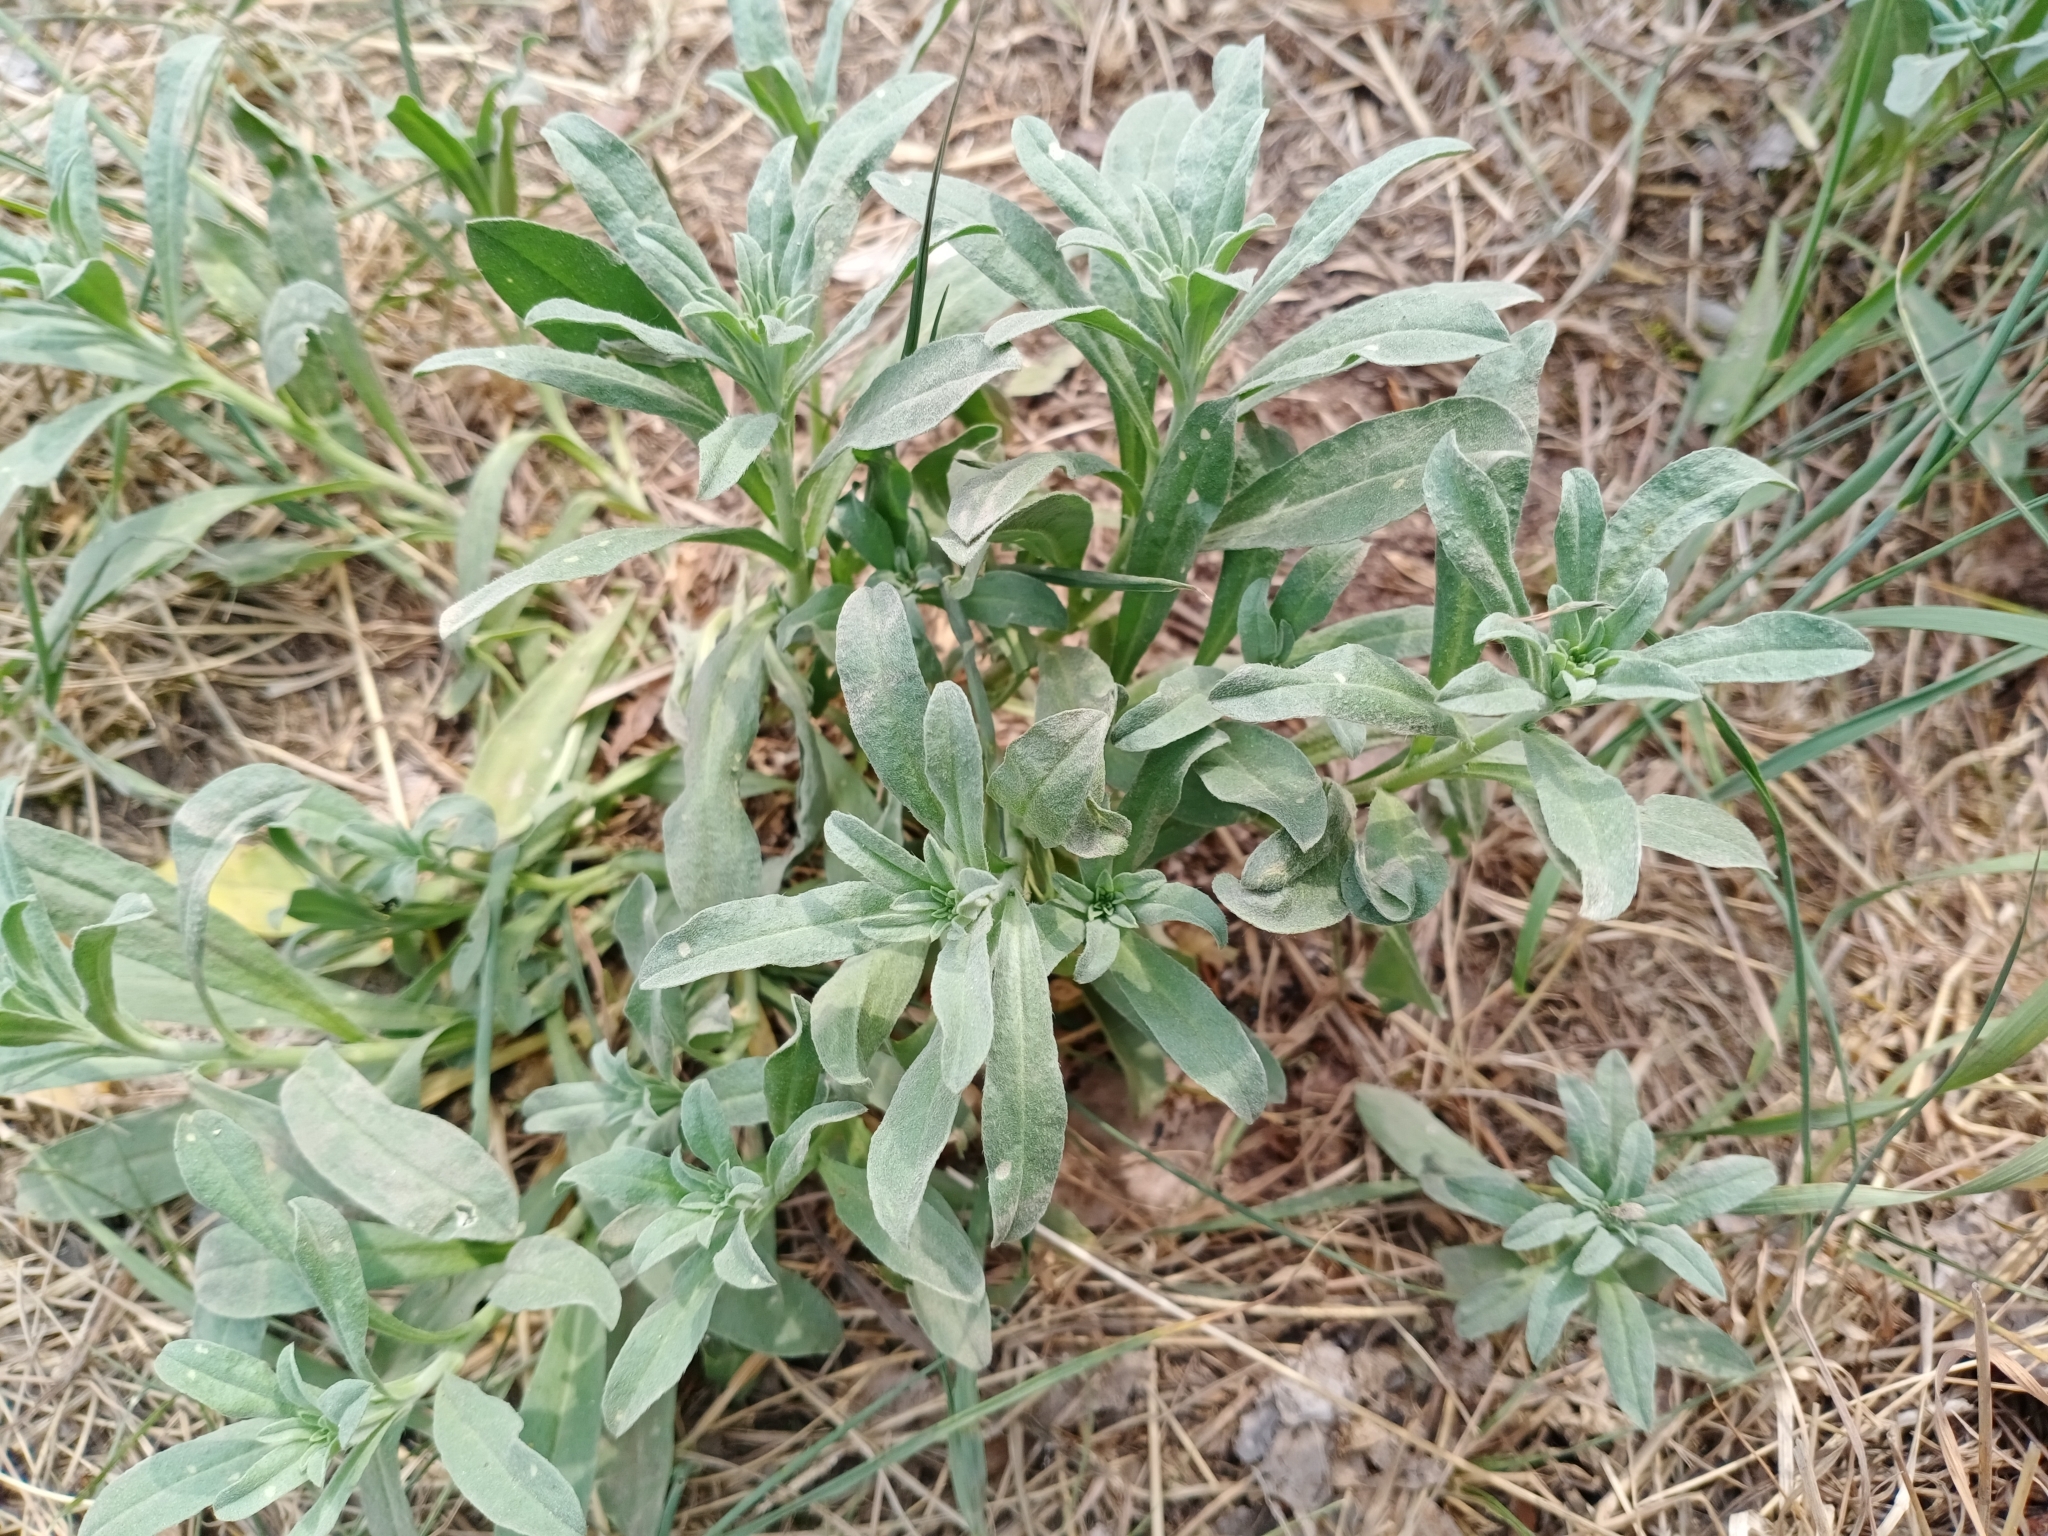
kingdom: Plantae
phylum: Tracheophyta
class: Magnoliopsida
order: Brassicales
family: Brassicaceae
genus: Berteroa
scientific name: Berteroa incana
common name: Hoary alison
